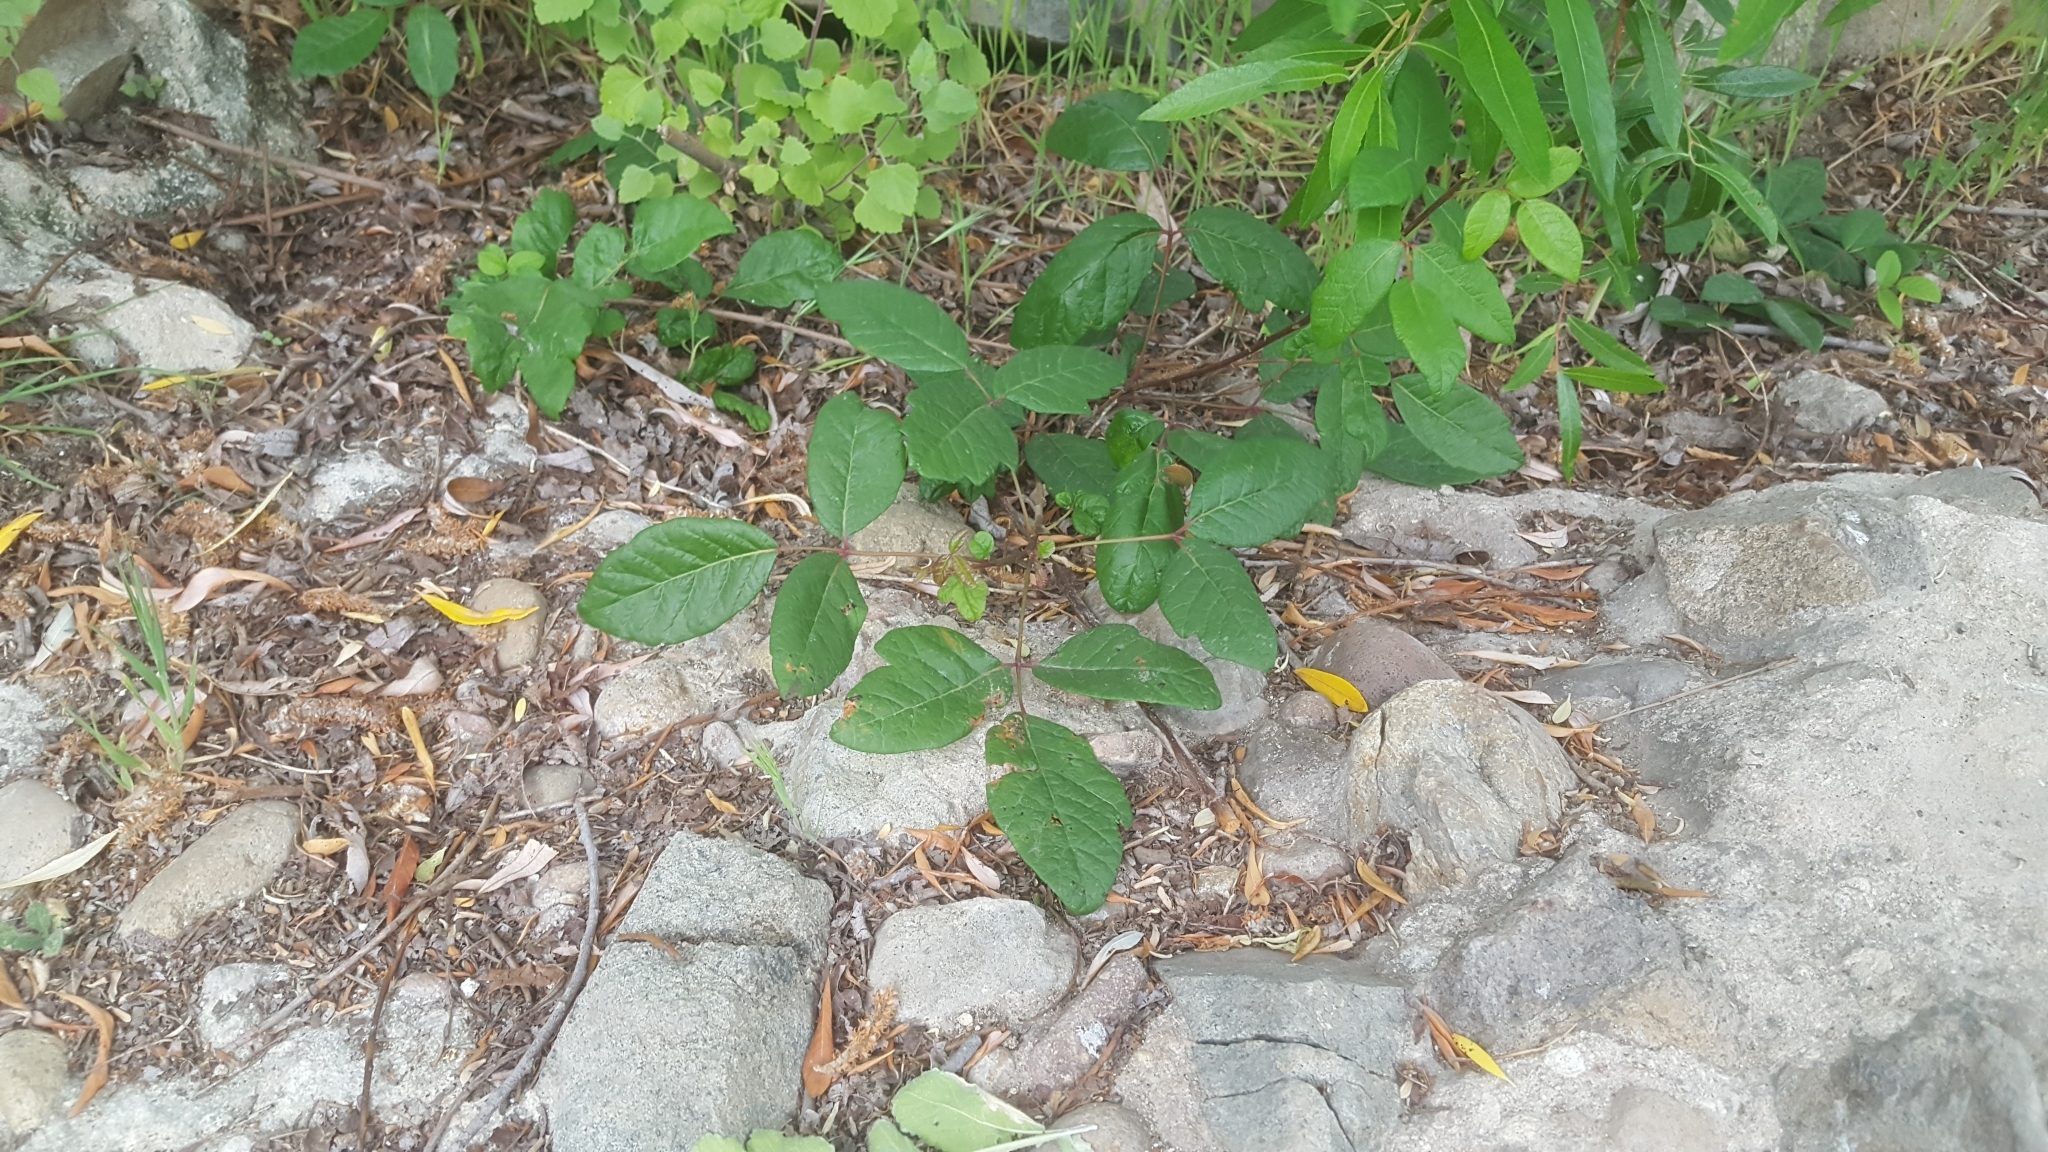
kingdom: Plantae
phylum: Tracheophyta
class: Magnoliopsida
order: Sapindales
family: Anacardiaceae
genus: Toxicodendron
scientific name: Toxicodendron diversilobum
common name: Pacific poison-oak
